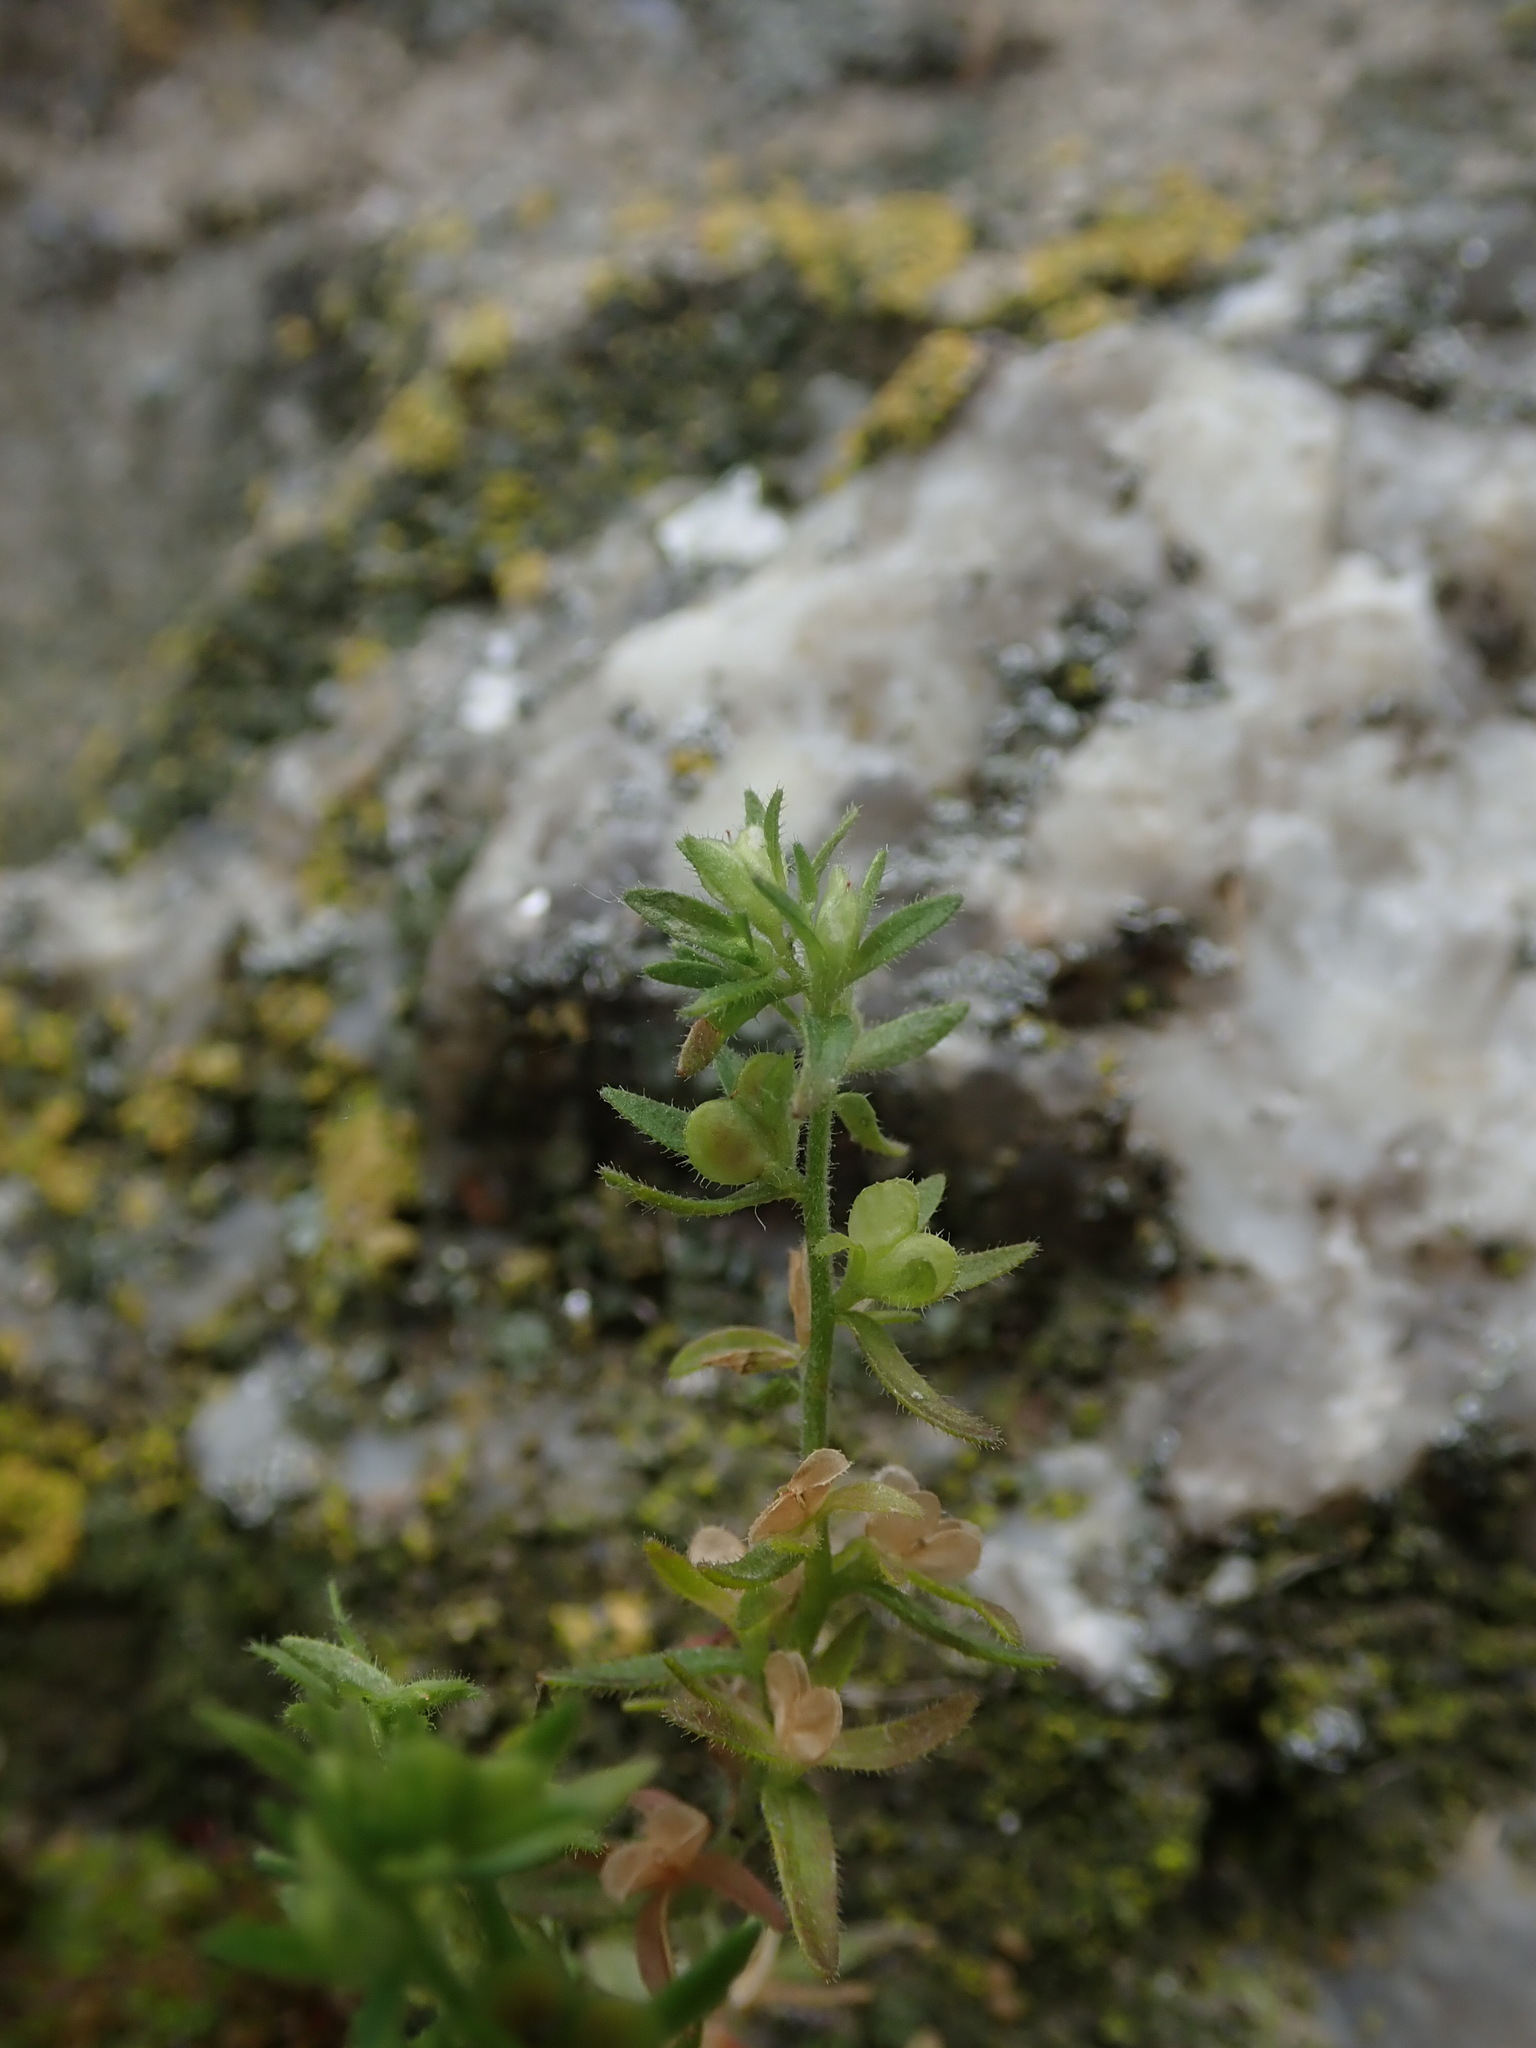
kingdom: Plantae
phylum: Tracheophyta
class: Magnoliopsida
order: Lamiales
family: Plantaginaceae
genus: Veronica
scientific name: Veronica arvensis
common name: Corn speedwell
